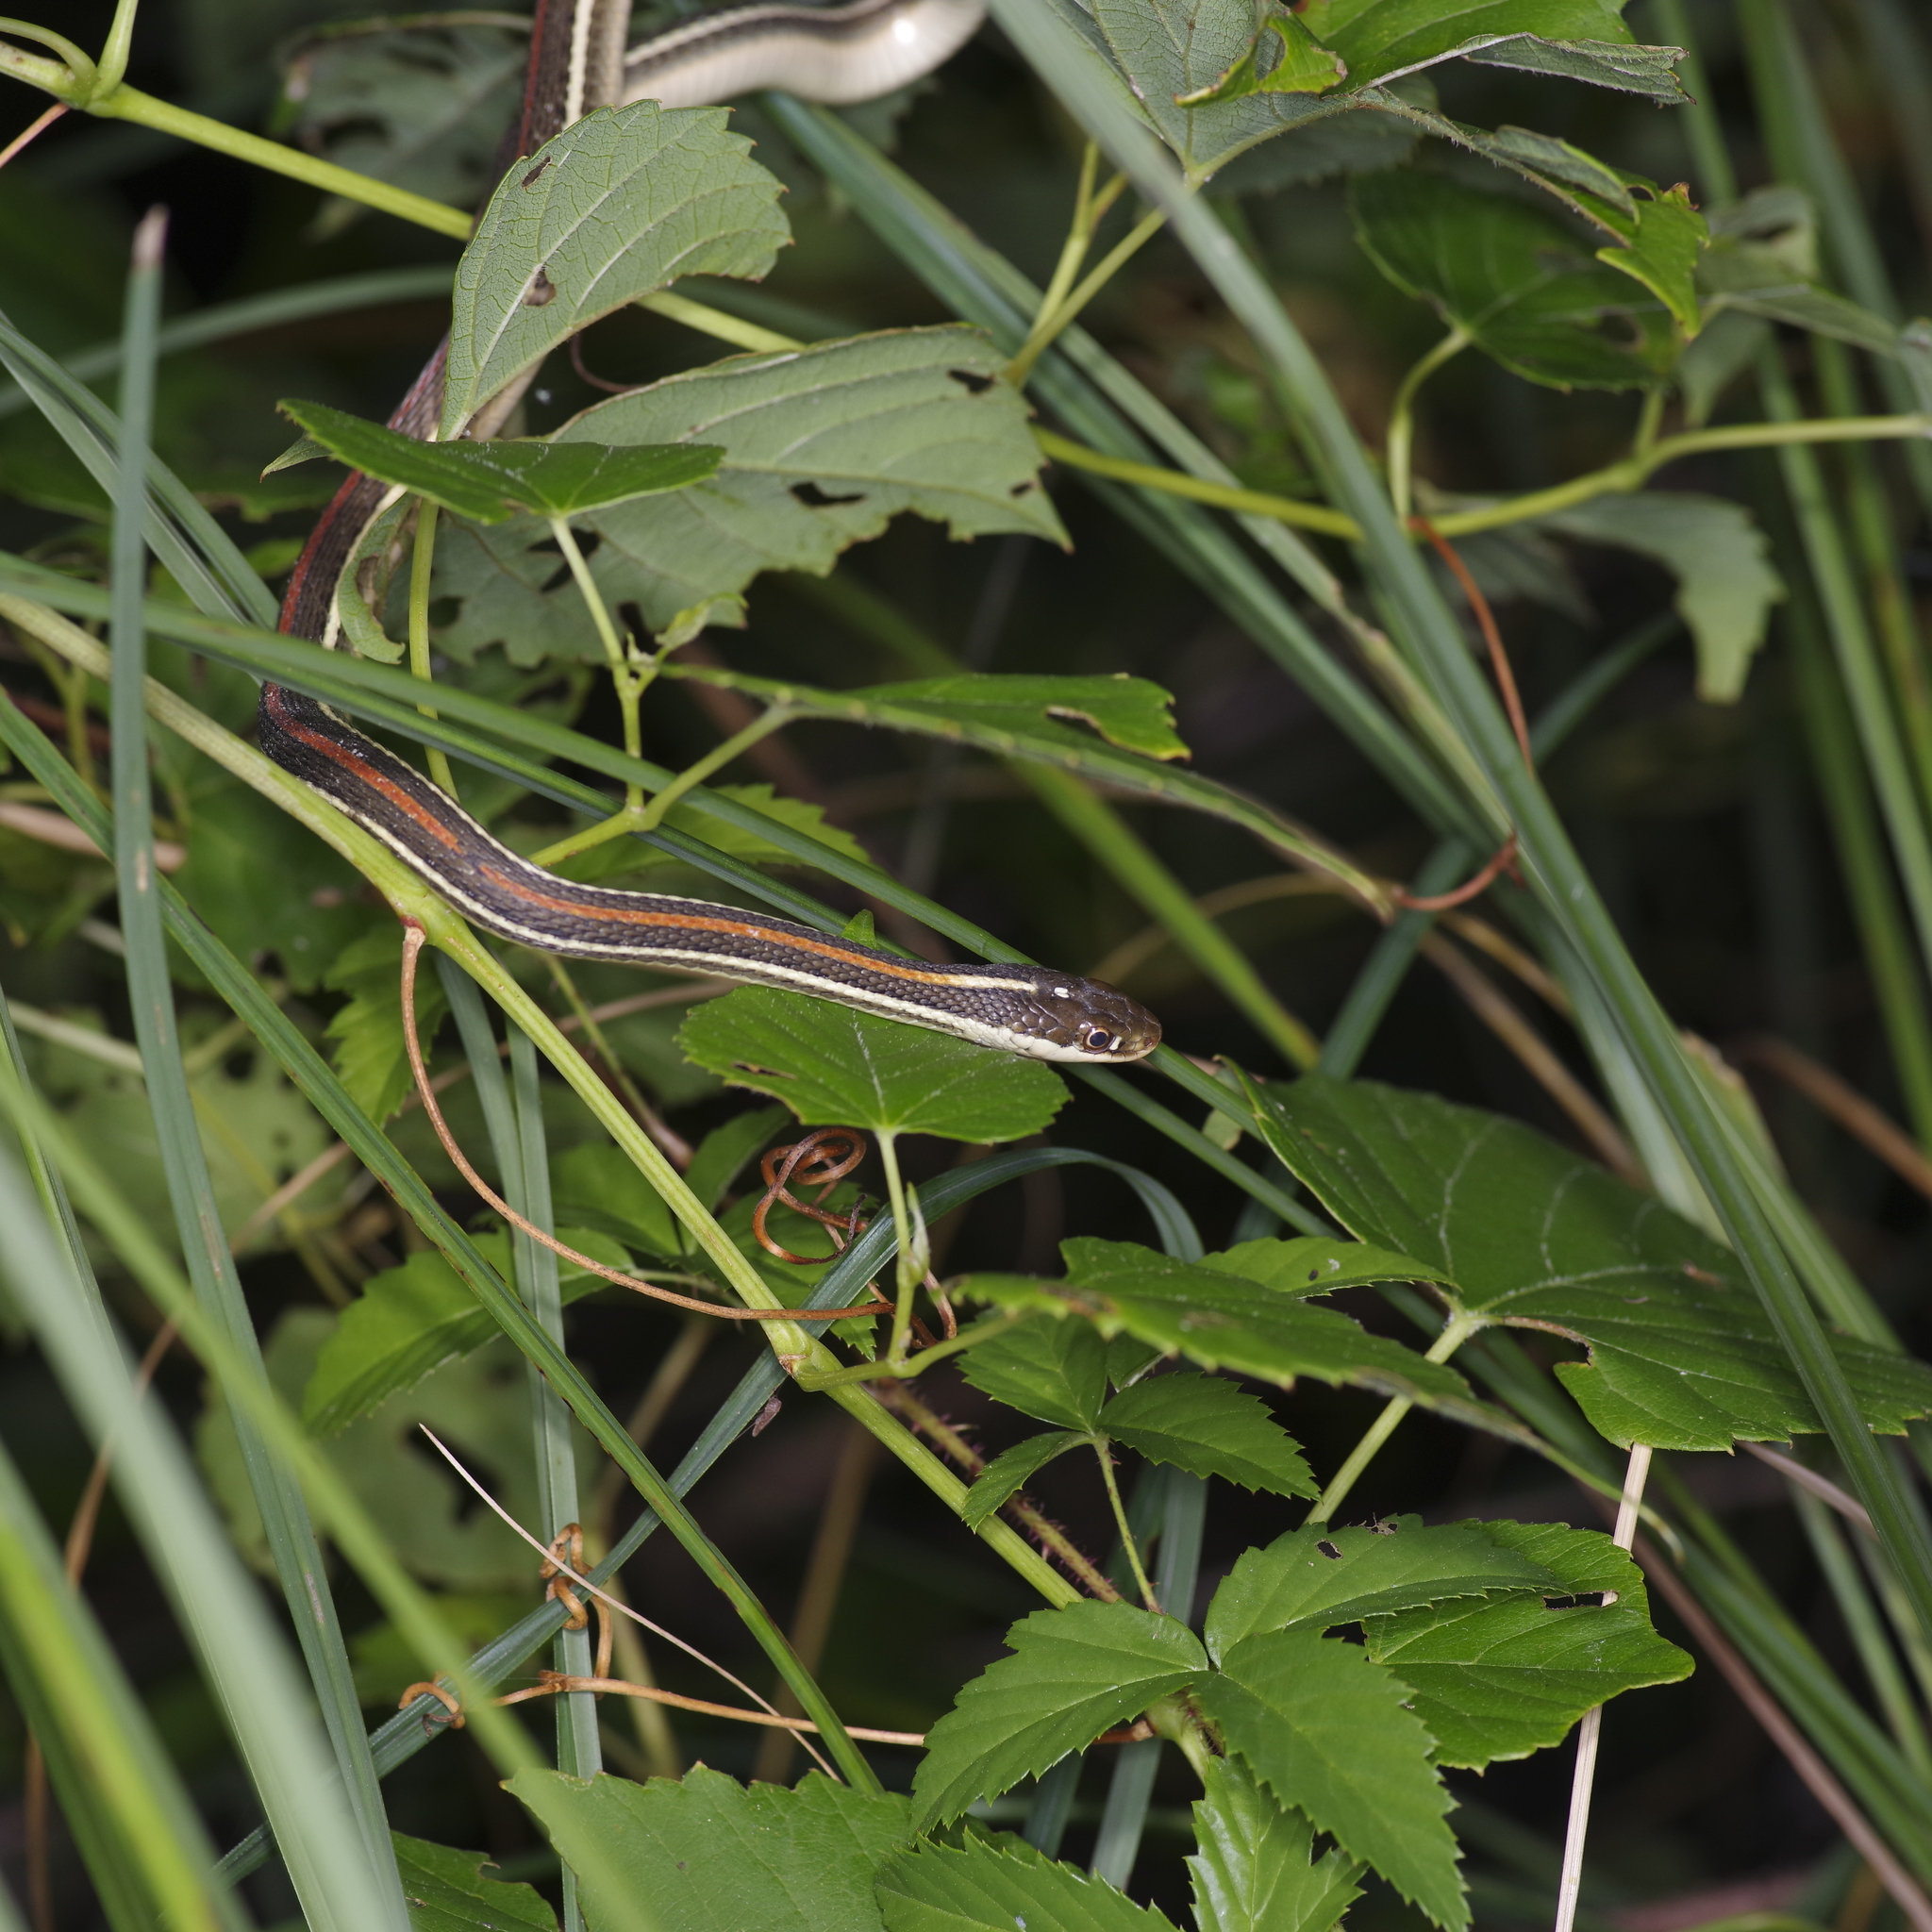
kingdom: Animalia
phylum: Chordata
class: Squamata
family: Colubridae
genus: Thamnophis
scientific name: Thamnophis proximus
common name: Western ribbon snake
